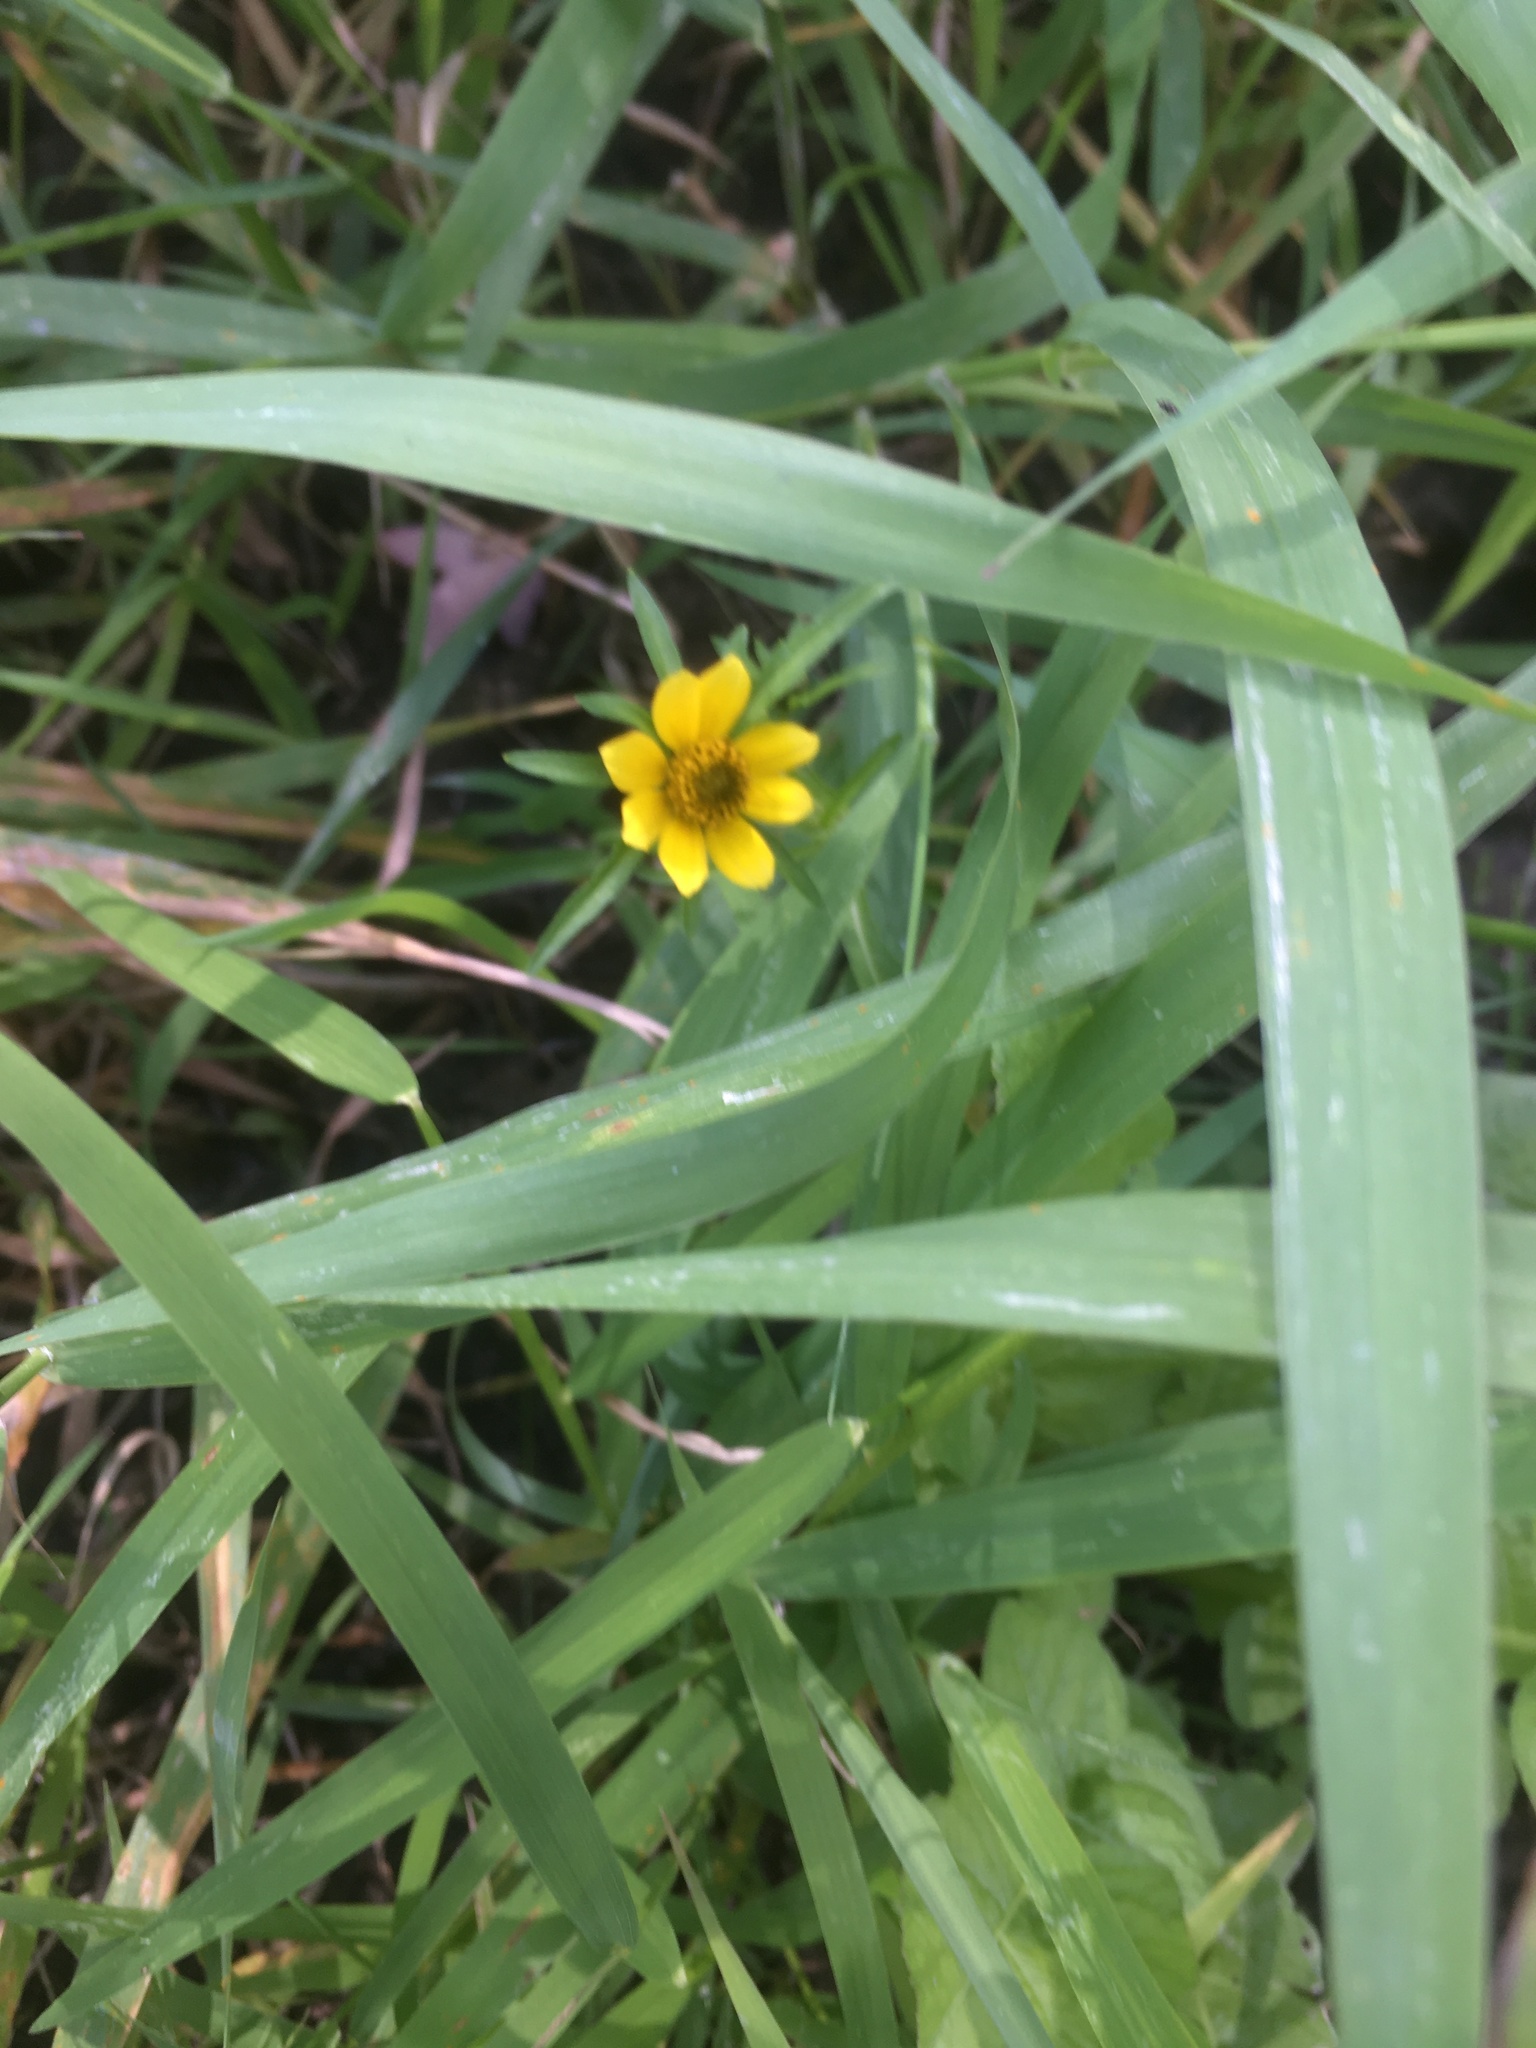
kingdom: Plantae
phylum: Tracheophyta
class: Magnoliopsida
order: Asterales
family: Asteraceae
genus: Bidens
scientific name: Bidens cernua
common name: Nodding bur-marigold
